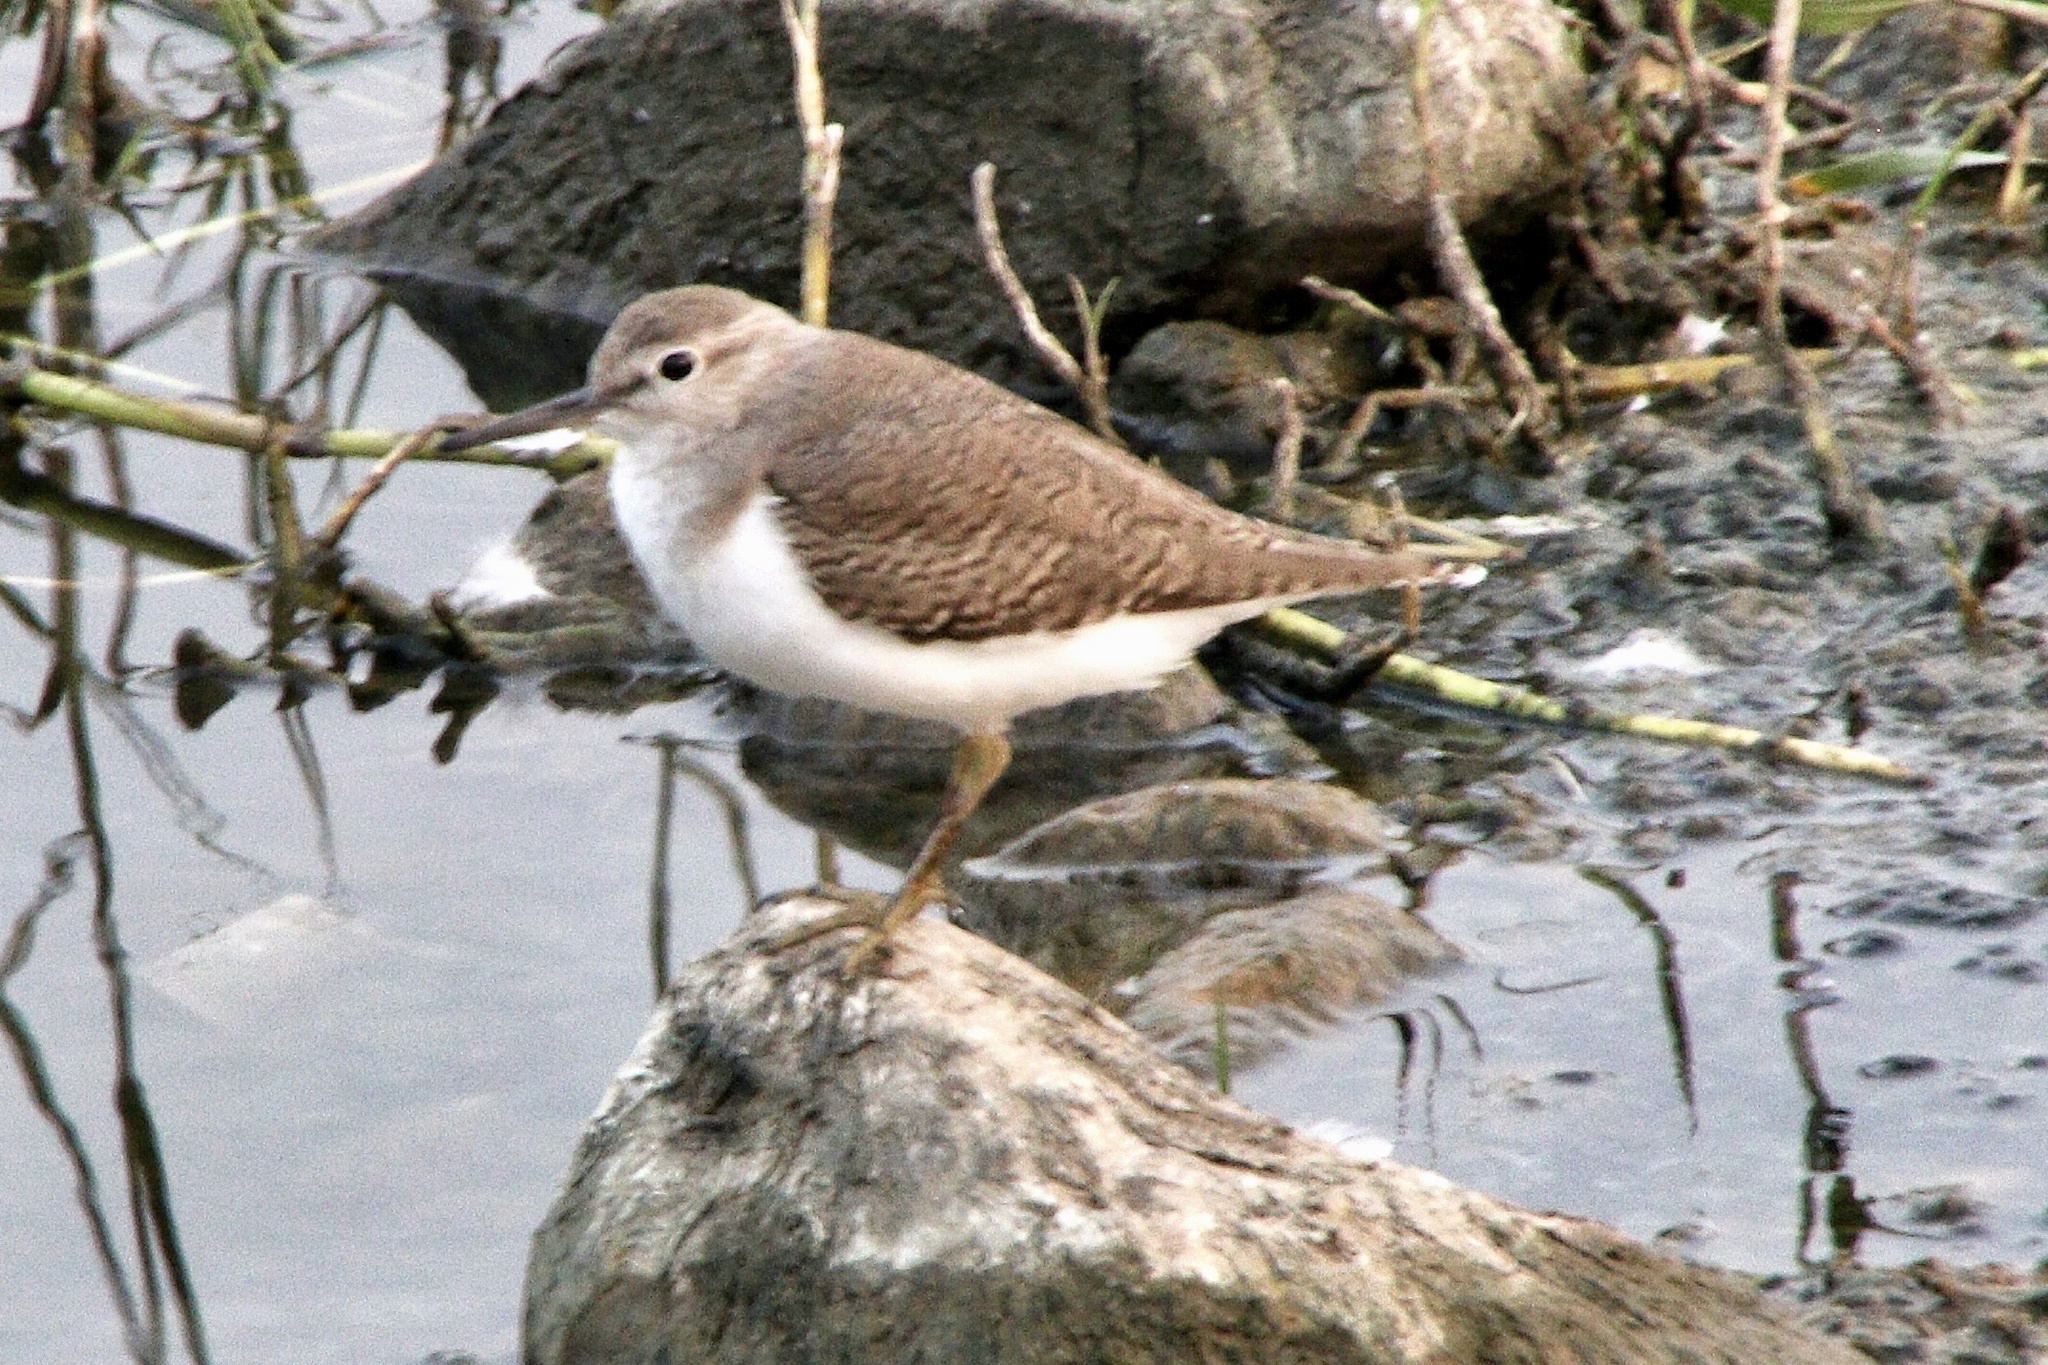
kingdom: Animalia
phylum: Chordata
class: Aves
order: Charadriiformes
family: Scolopacidae
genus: Actitis
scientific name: Actitis hypoleucos
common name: Common sandpiper
